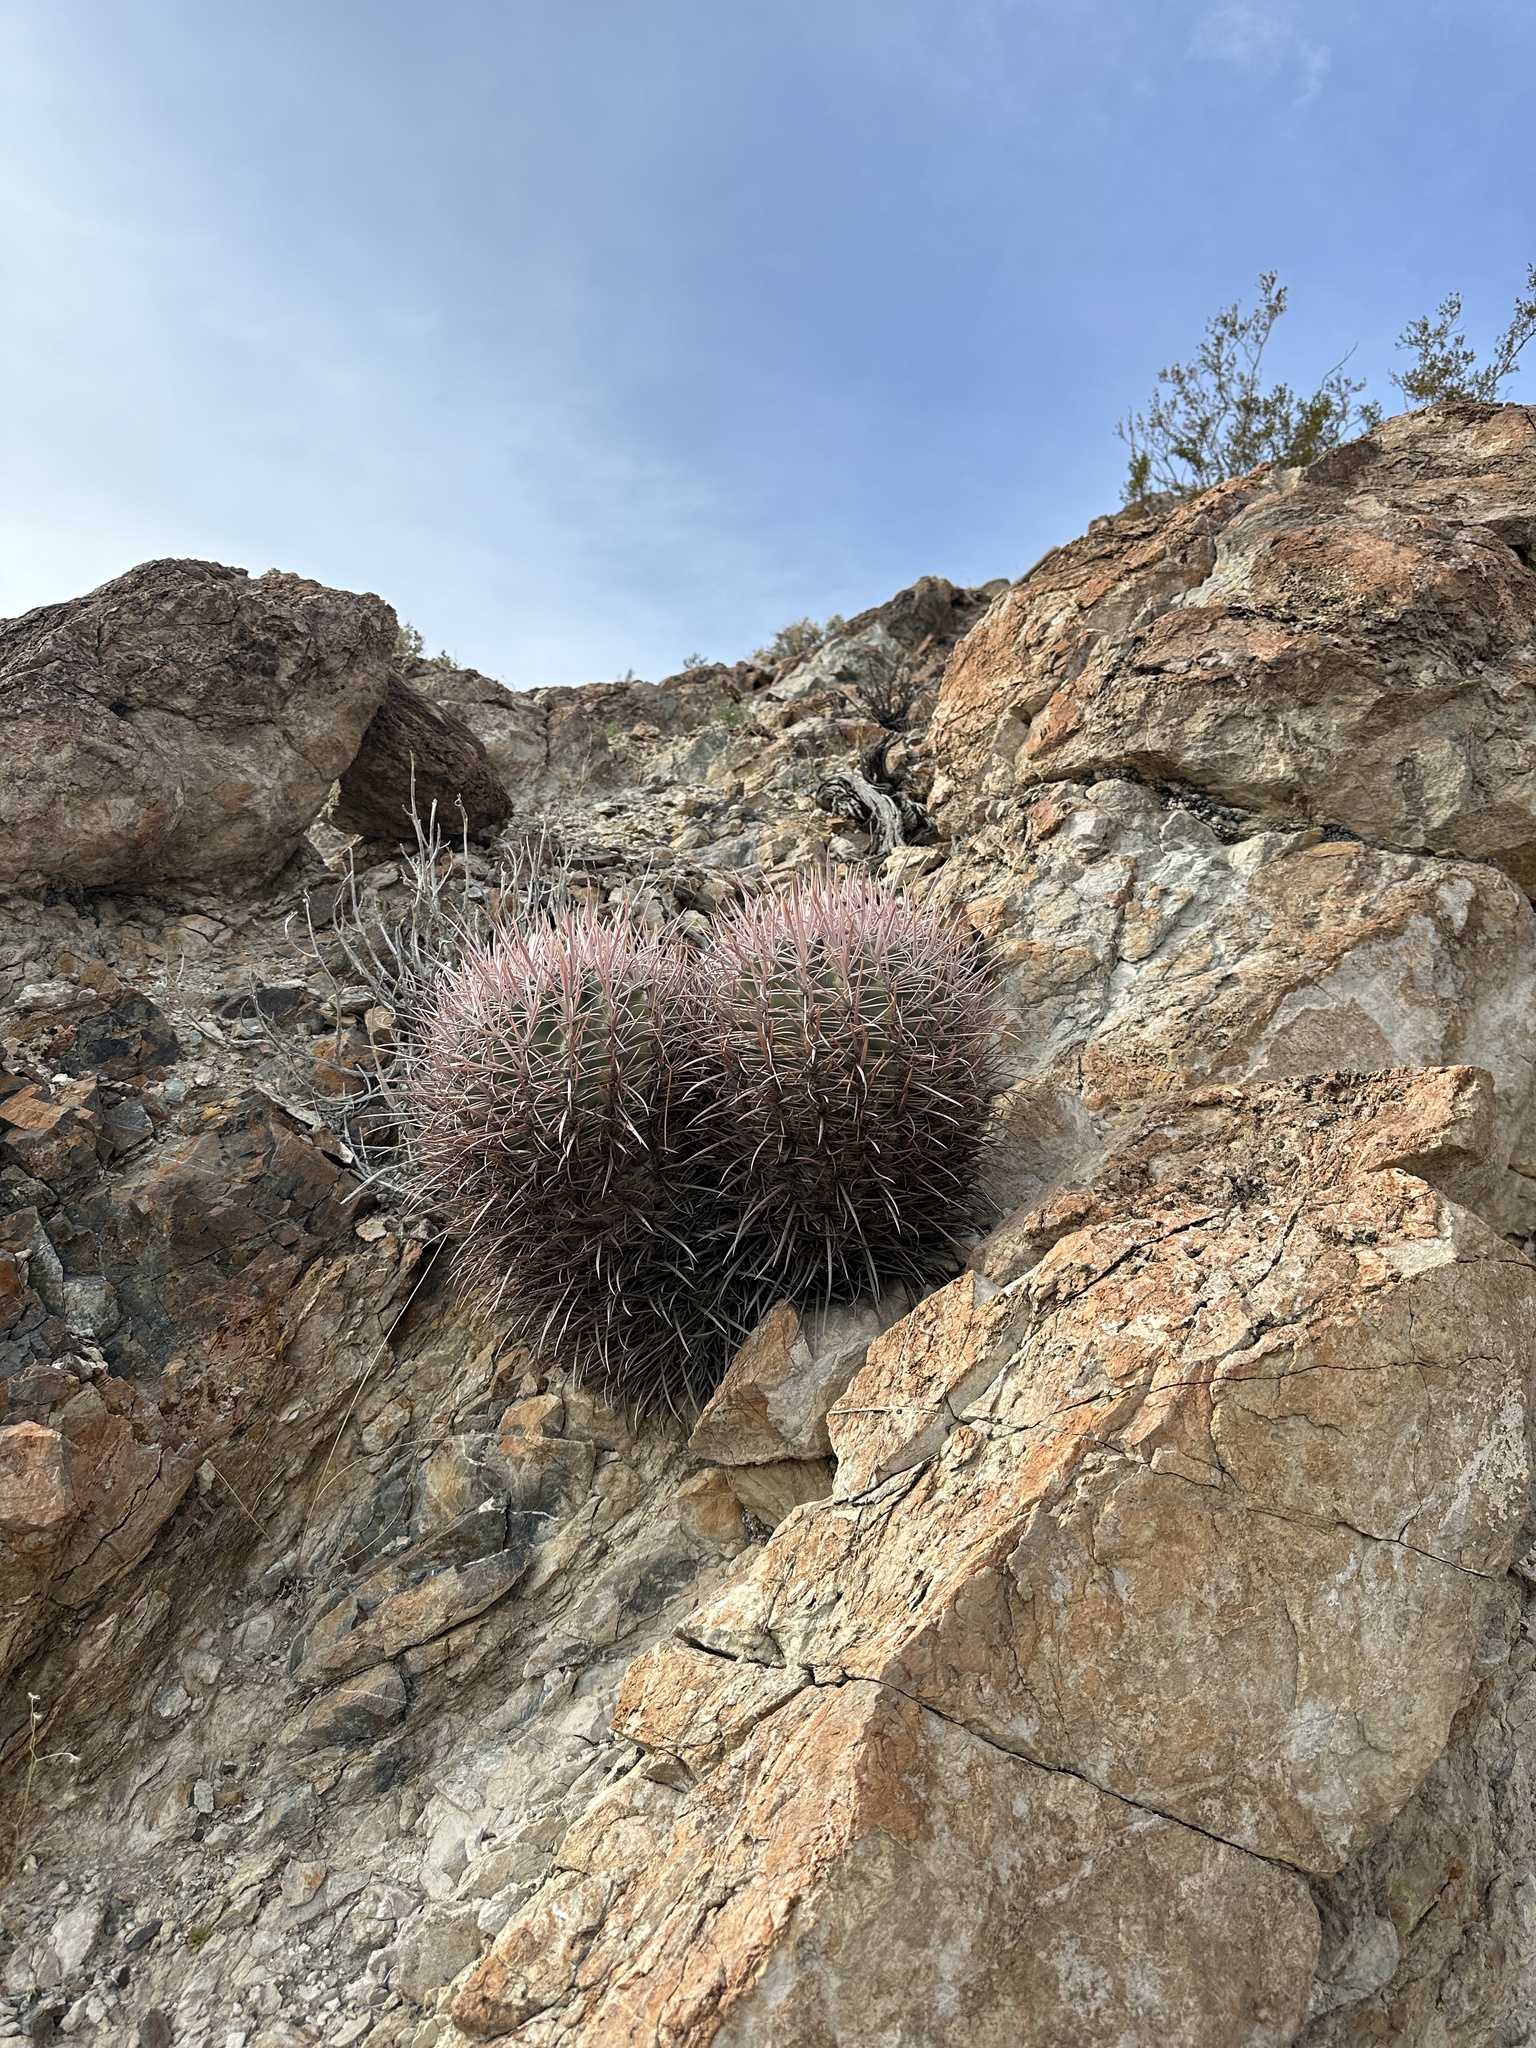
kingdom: Plantae
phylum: Tracheophyta
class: Magnoliopsida
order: Caryophyllales
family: Cactaceae
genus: Echinocactus
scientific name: Echinocactus polycephalus
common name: Cottontop cactus
